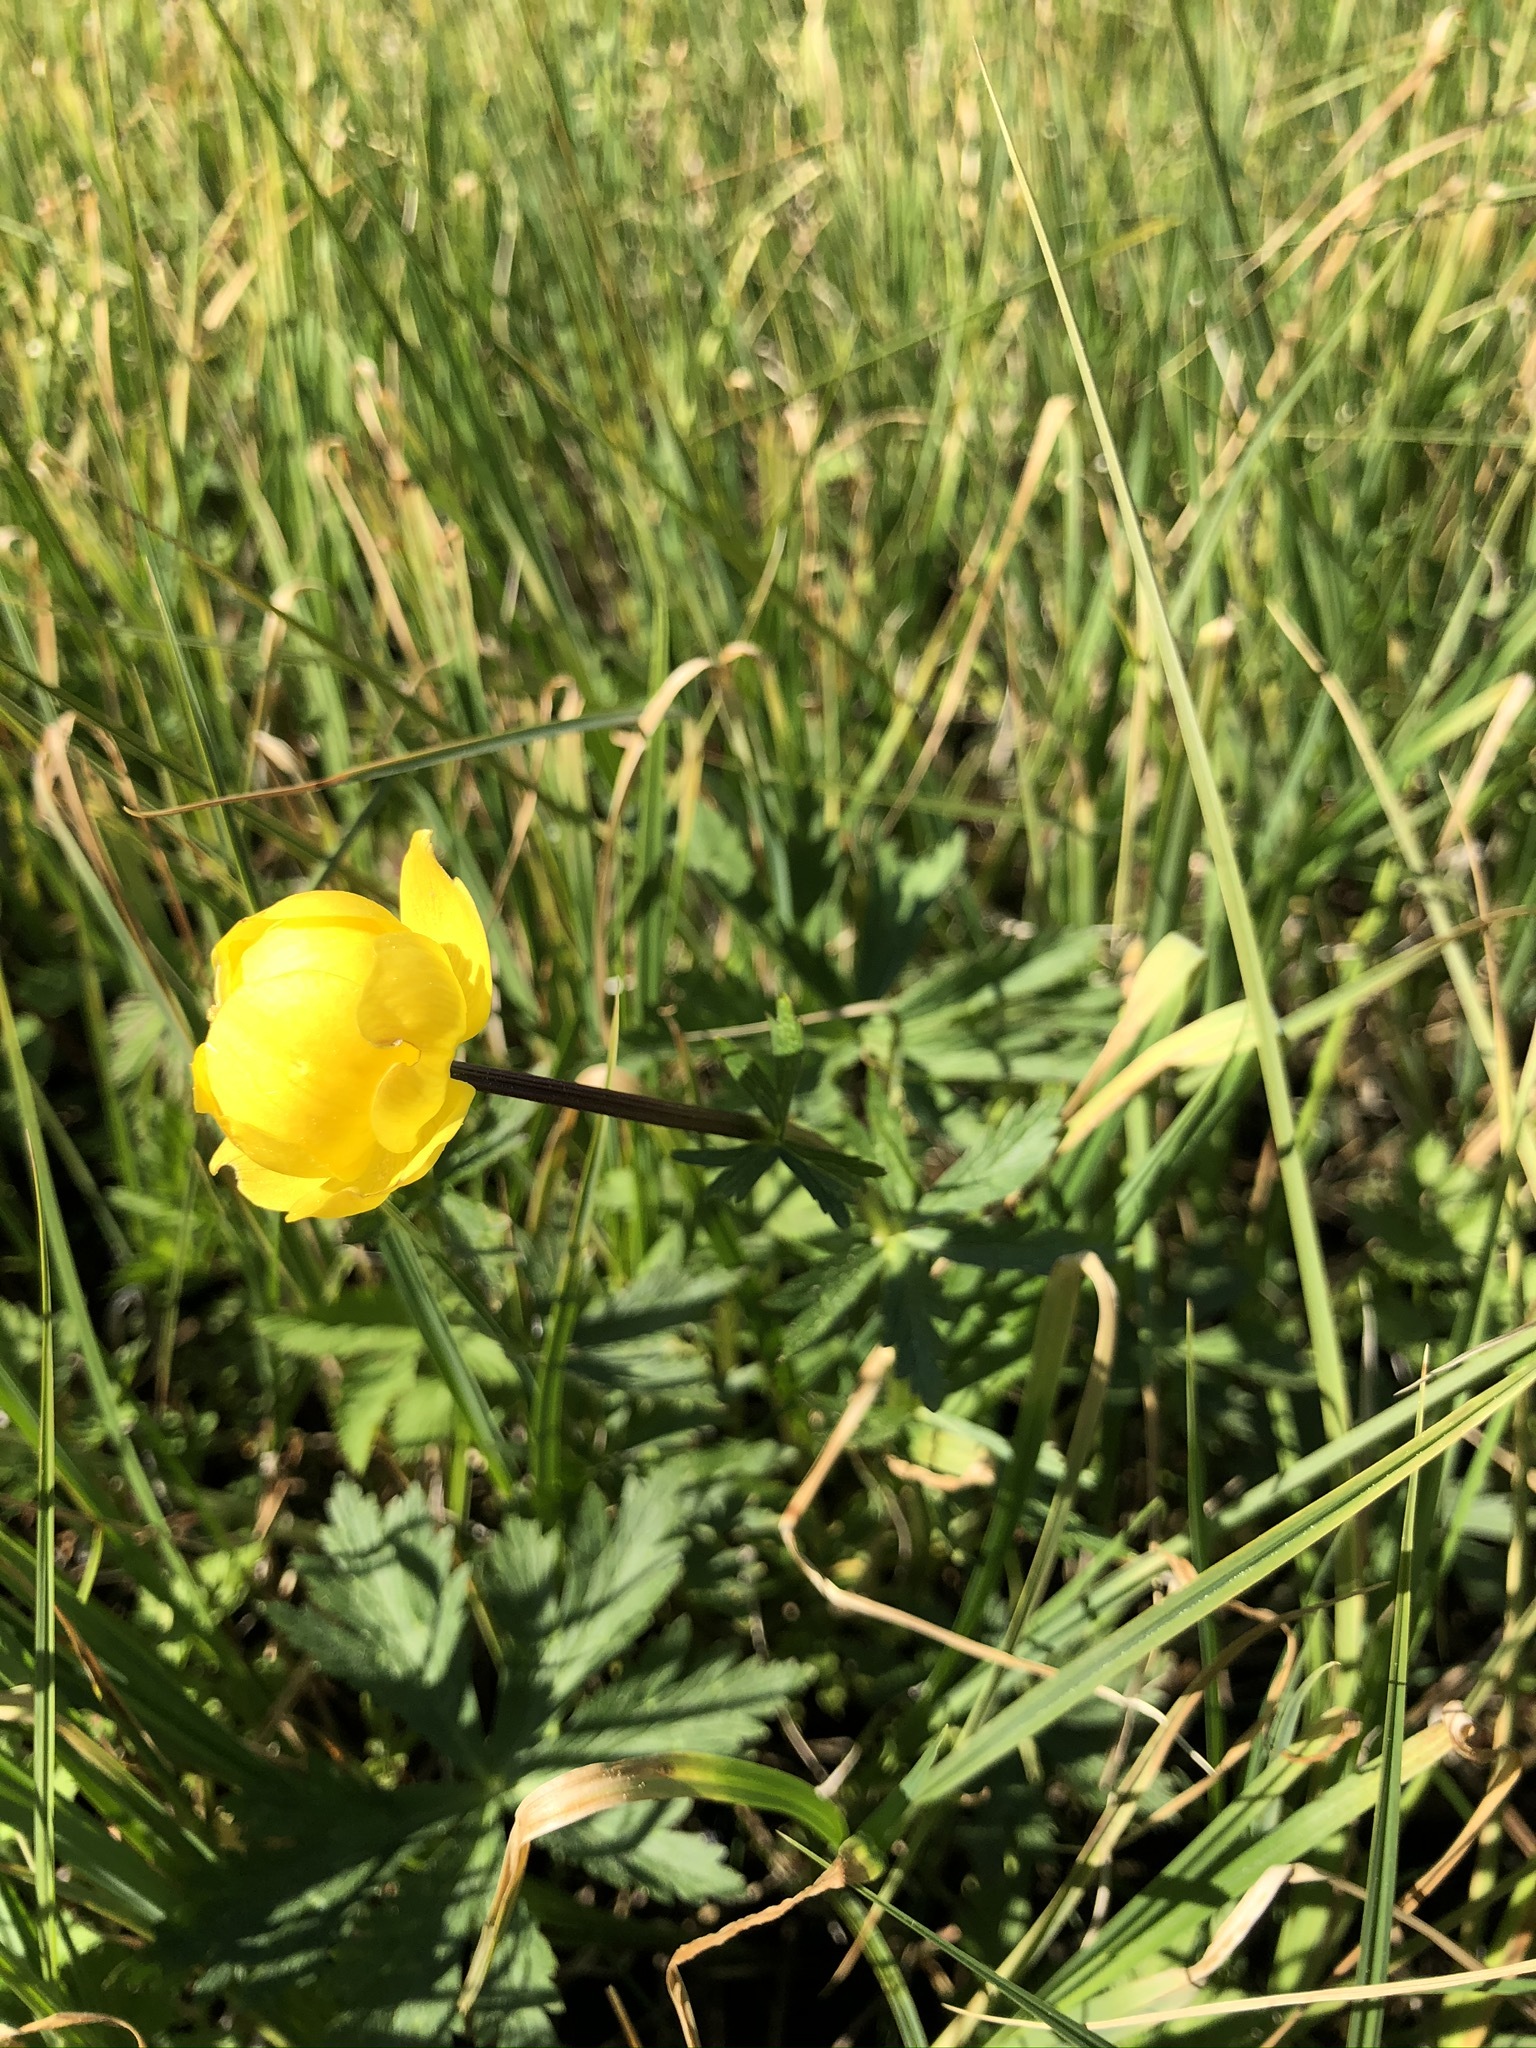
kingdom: Plantae
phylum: Tracheophyta
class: Magnoliopsida
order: Ranunculales
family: Ranunculaceae
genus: Trollius
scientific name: Trollius europaeus
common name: European globeflower
